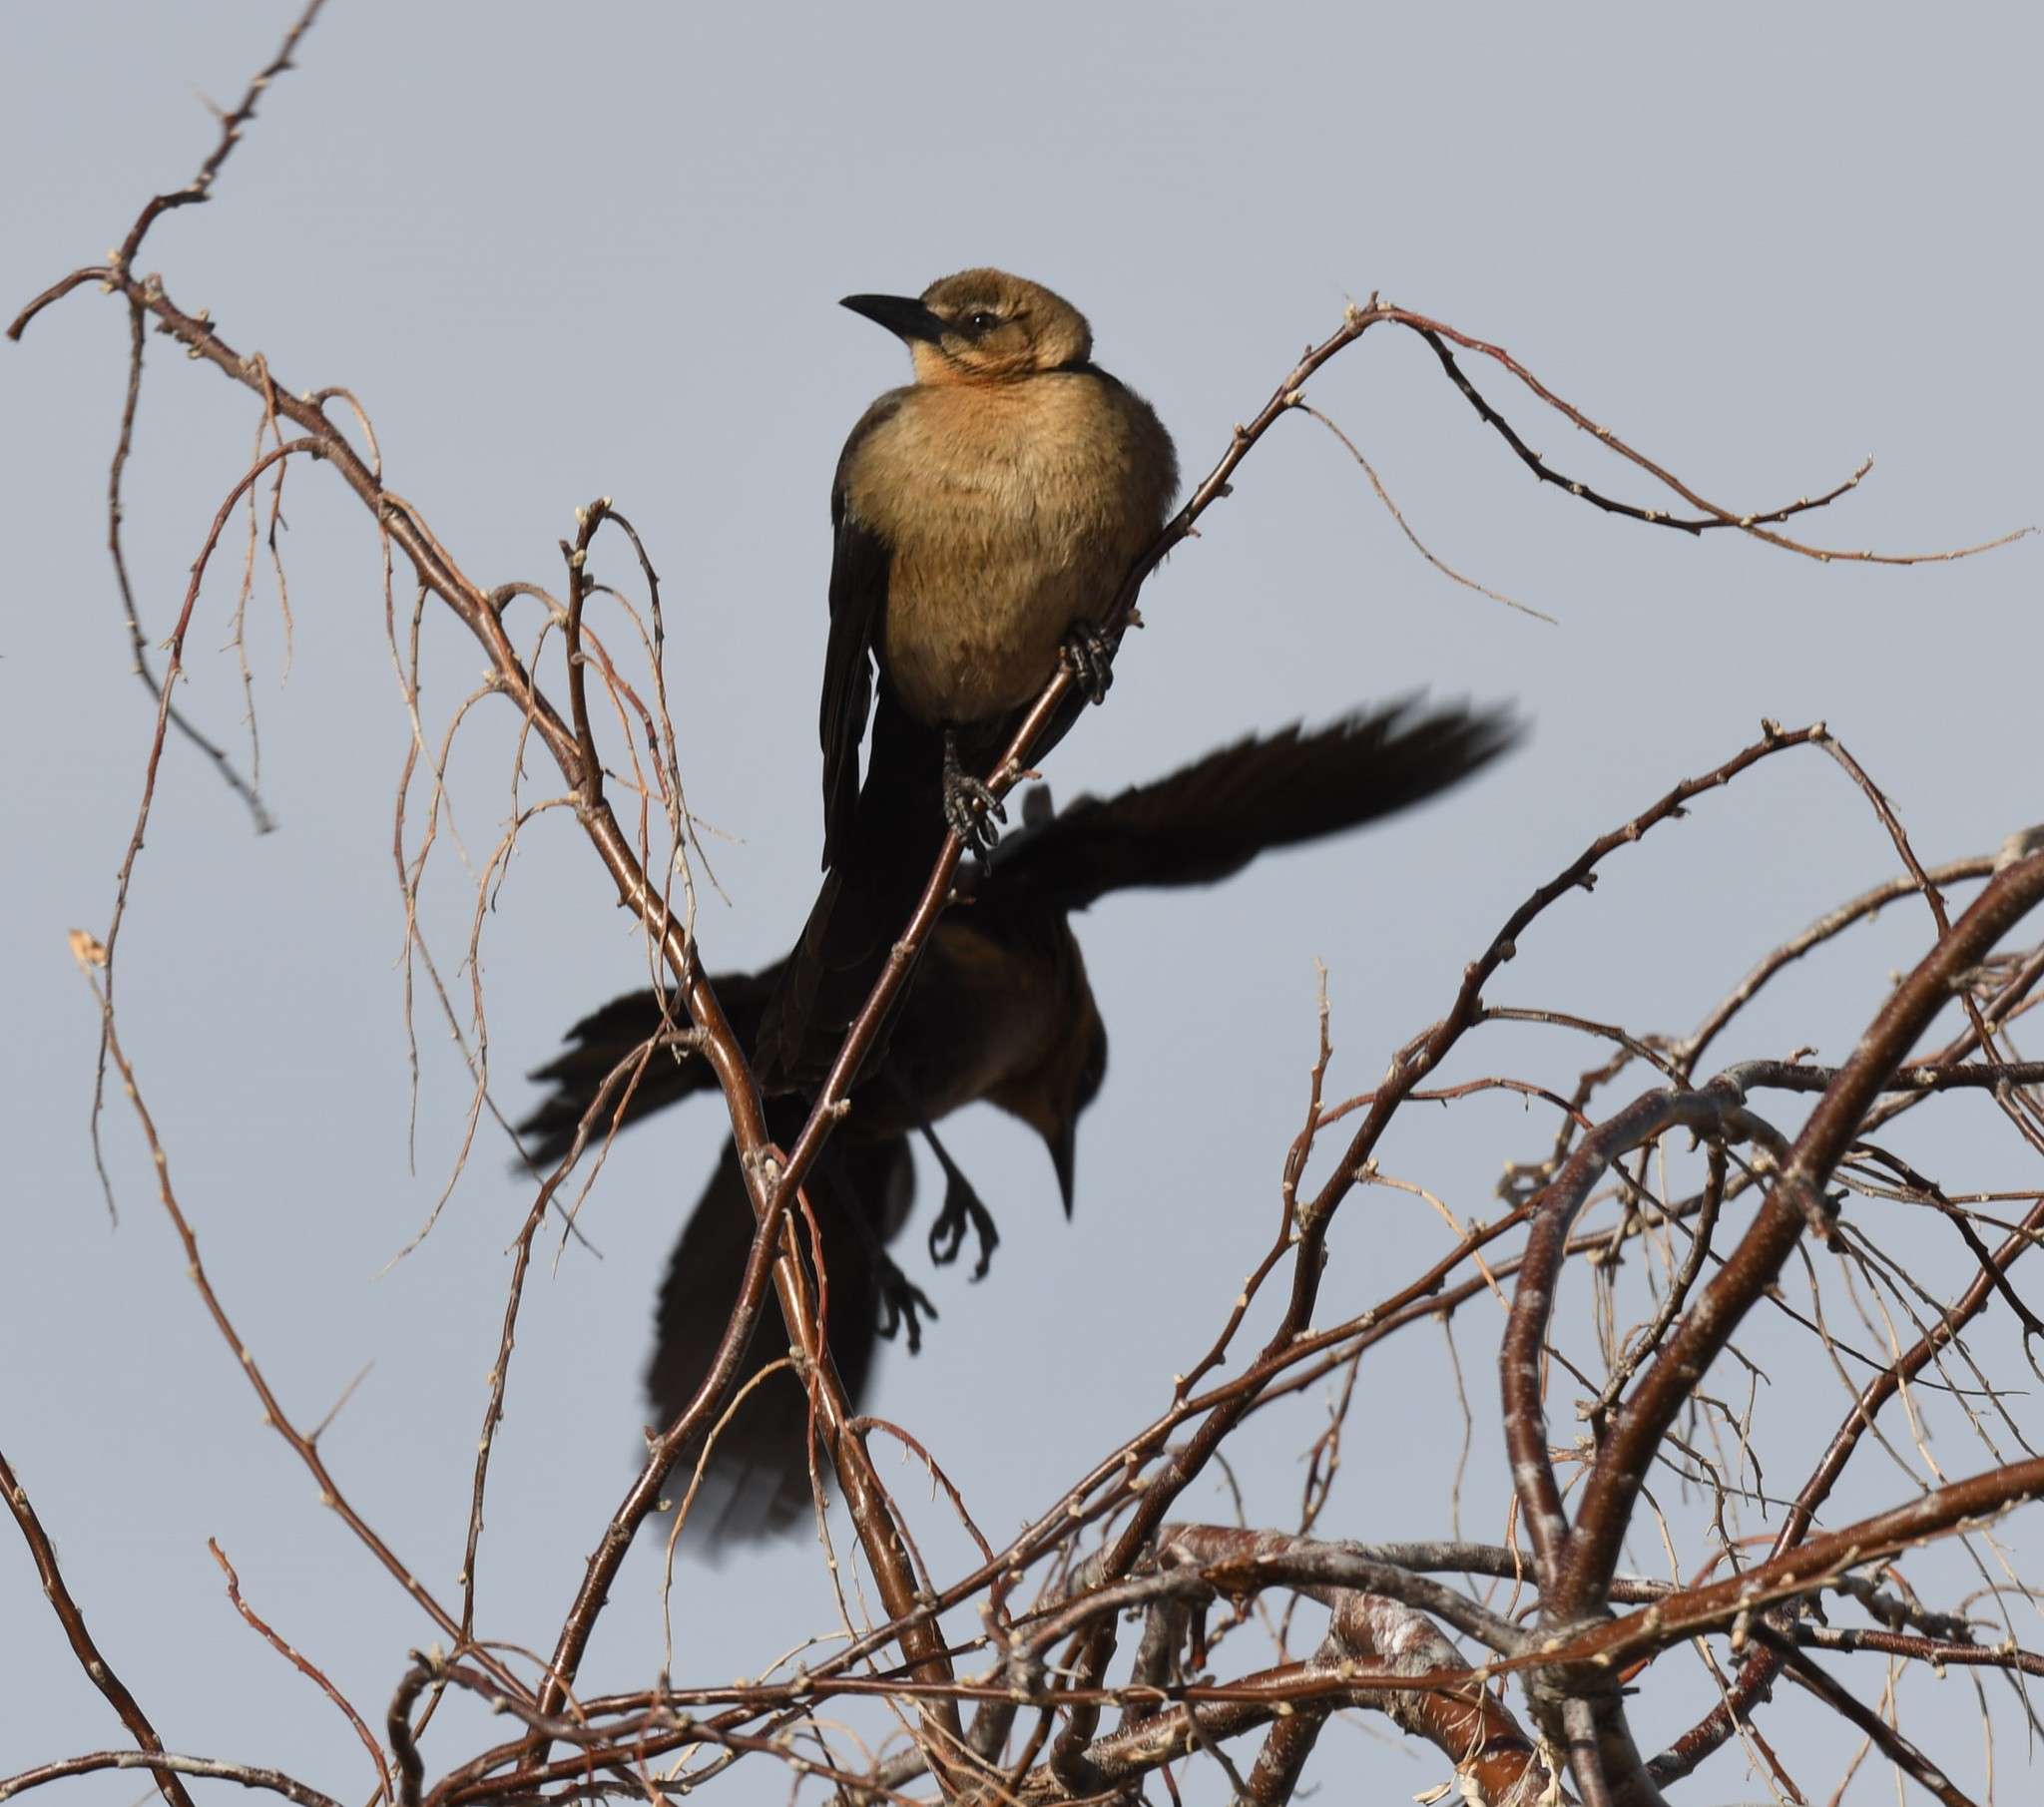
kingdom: Animalia
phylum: Chordata
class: Aves
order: Passeriformes
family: Icteridae
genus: Quiscalus
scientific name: Quiscalus mexicanus
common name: Great-tailed grackle
